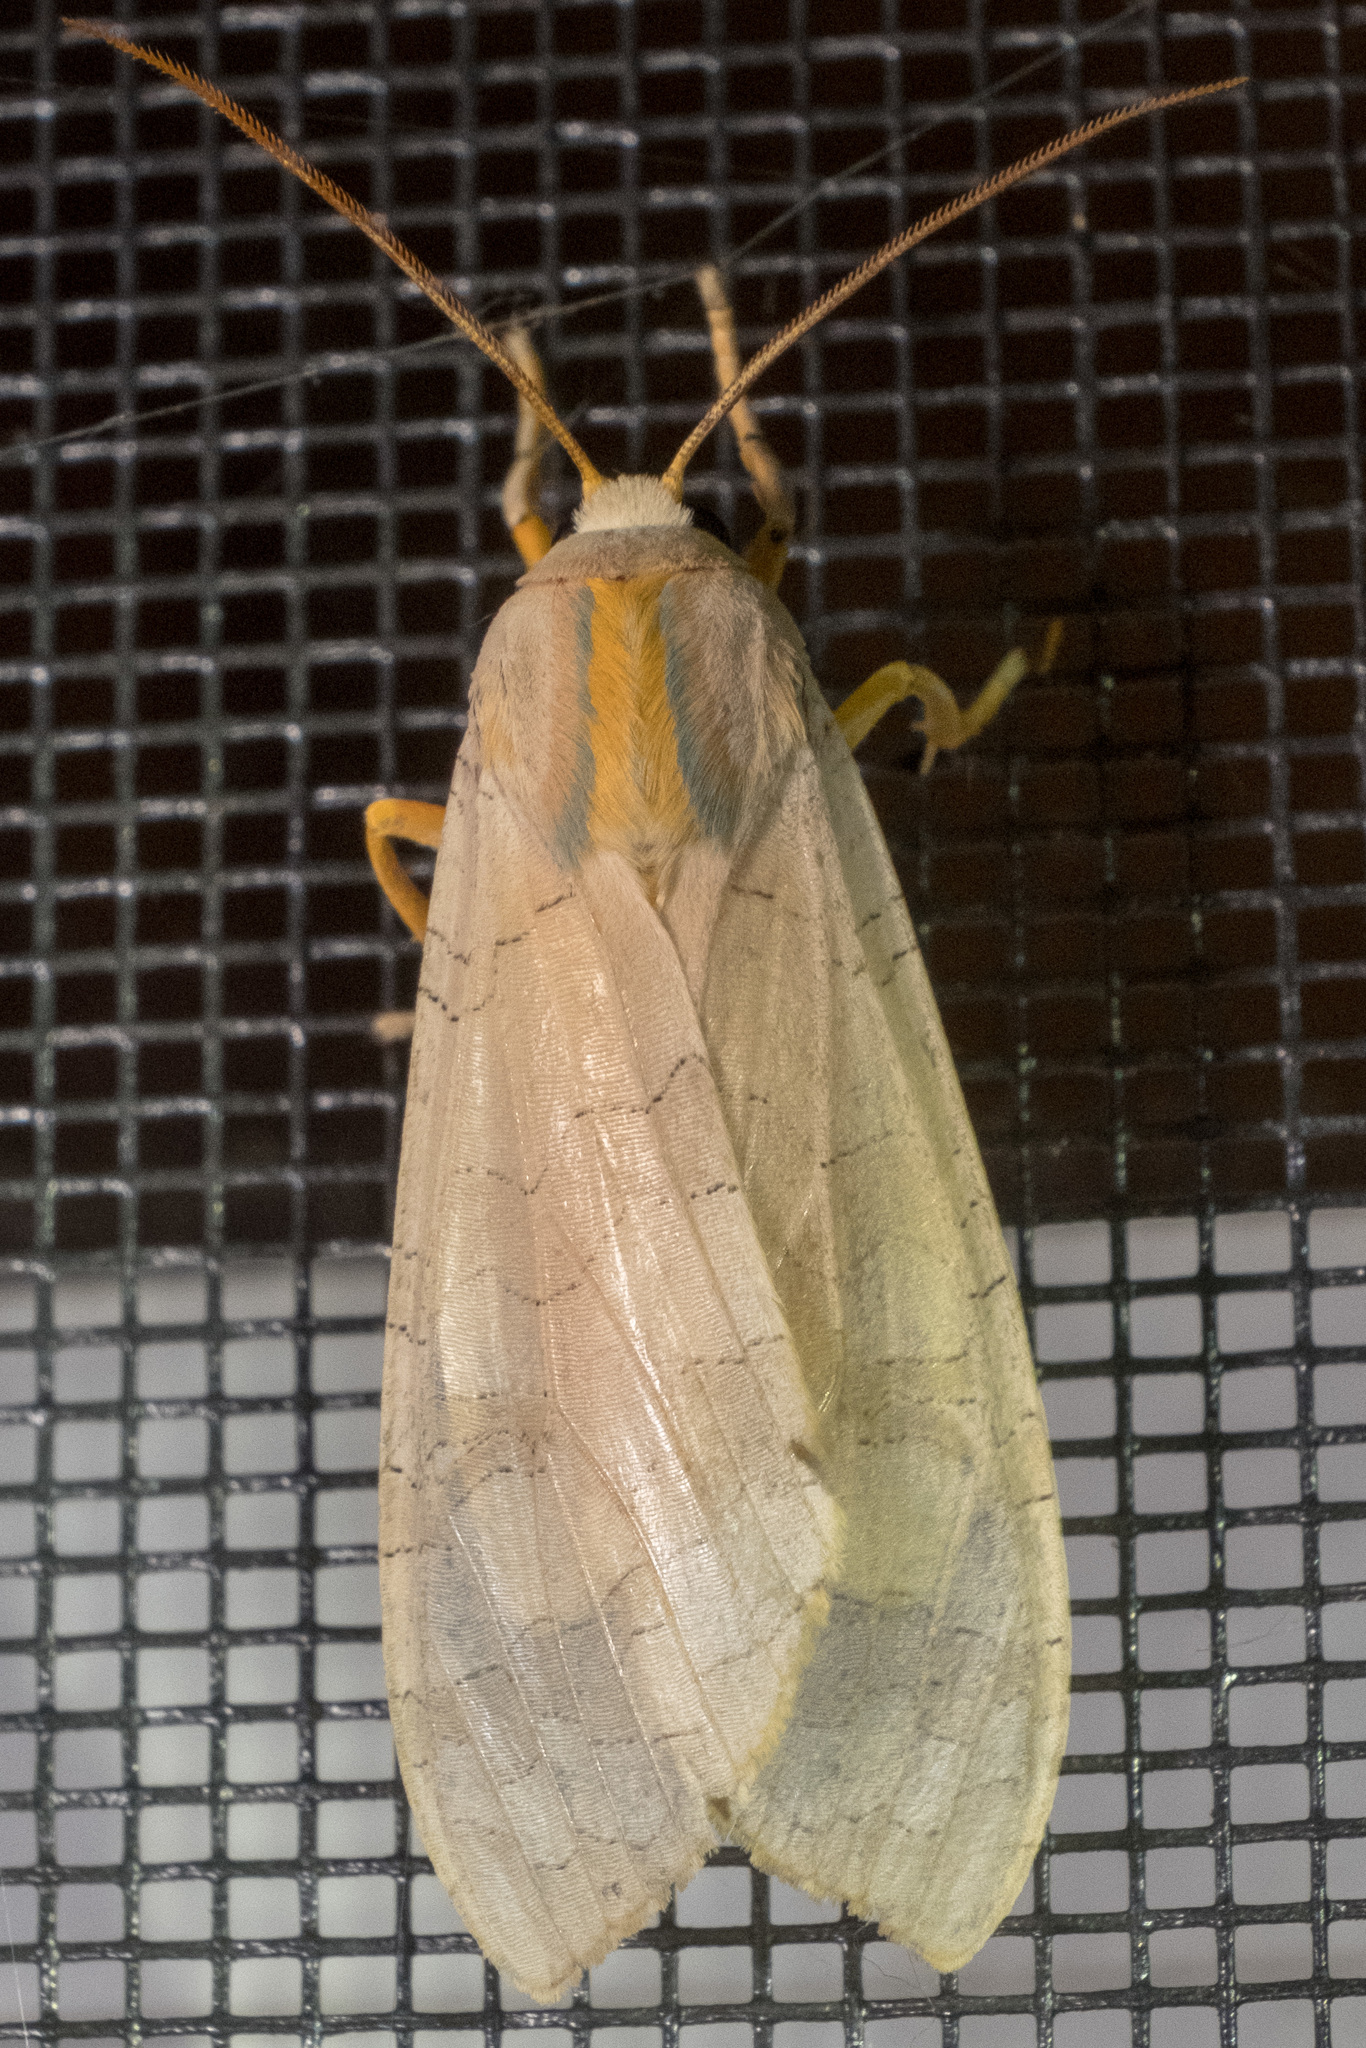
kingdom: Animalia
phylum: Arthropoda
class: Insecta
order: Lepidoptera
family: Erebidae
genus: Halysidota
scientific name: Halysidota
